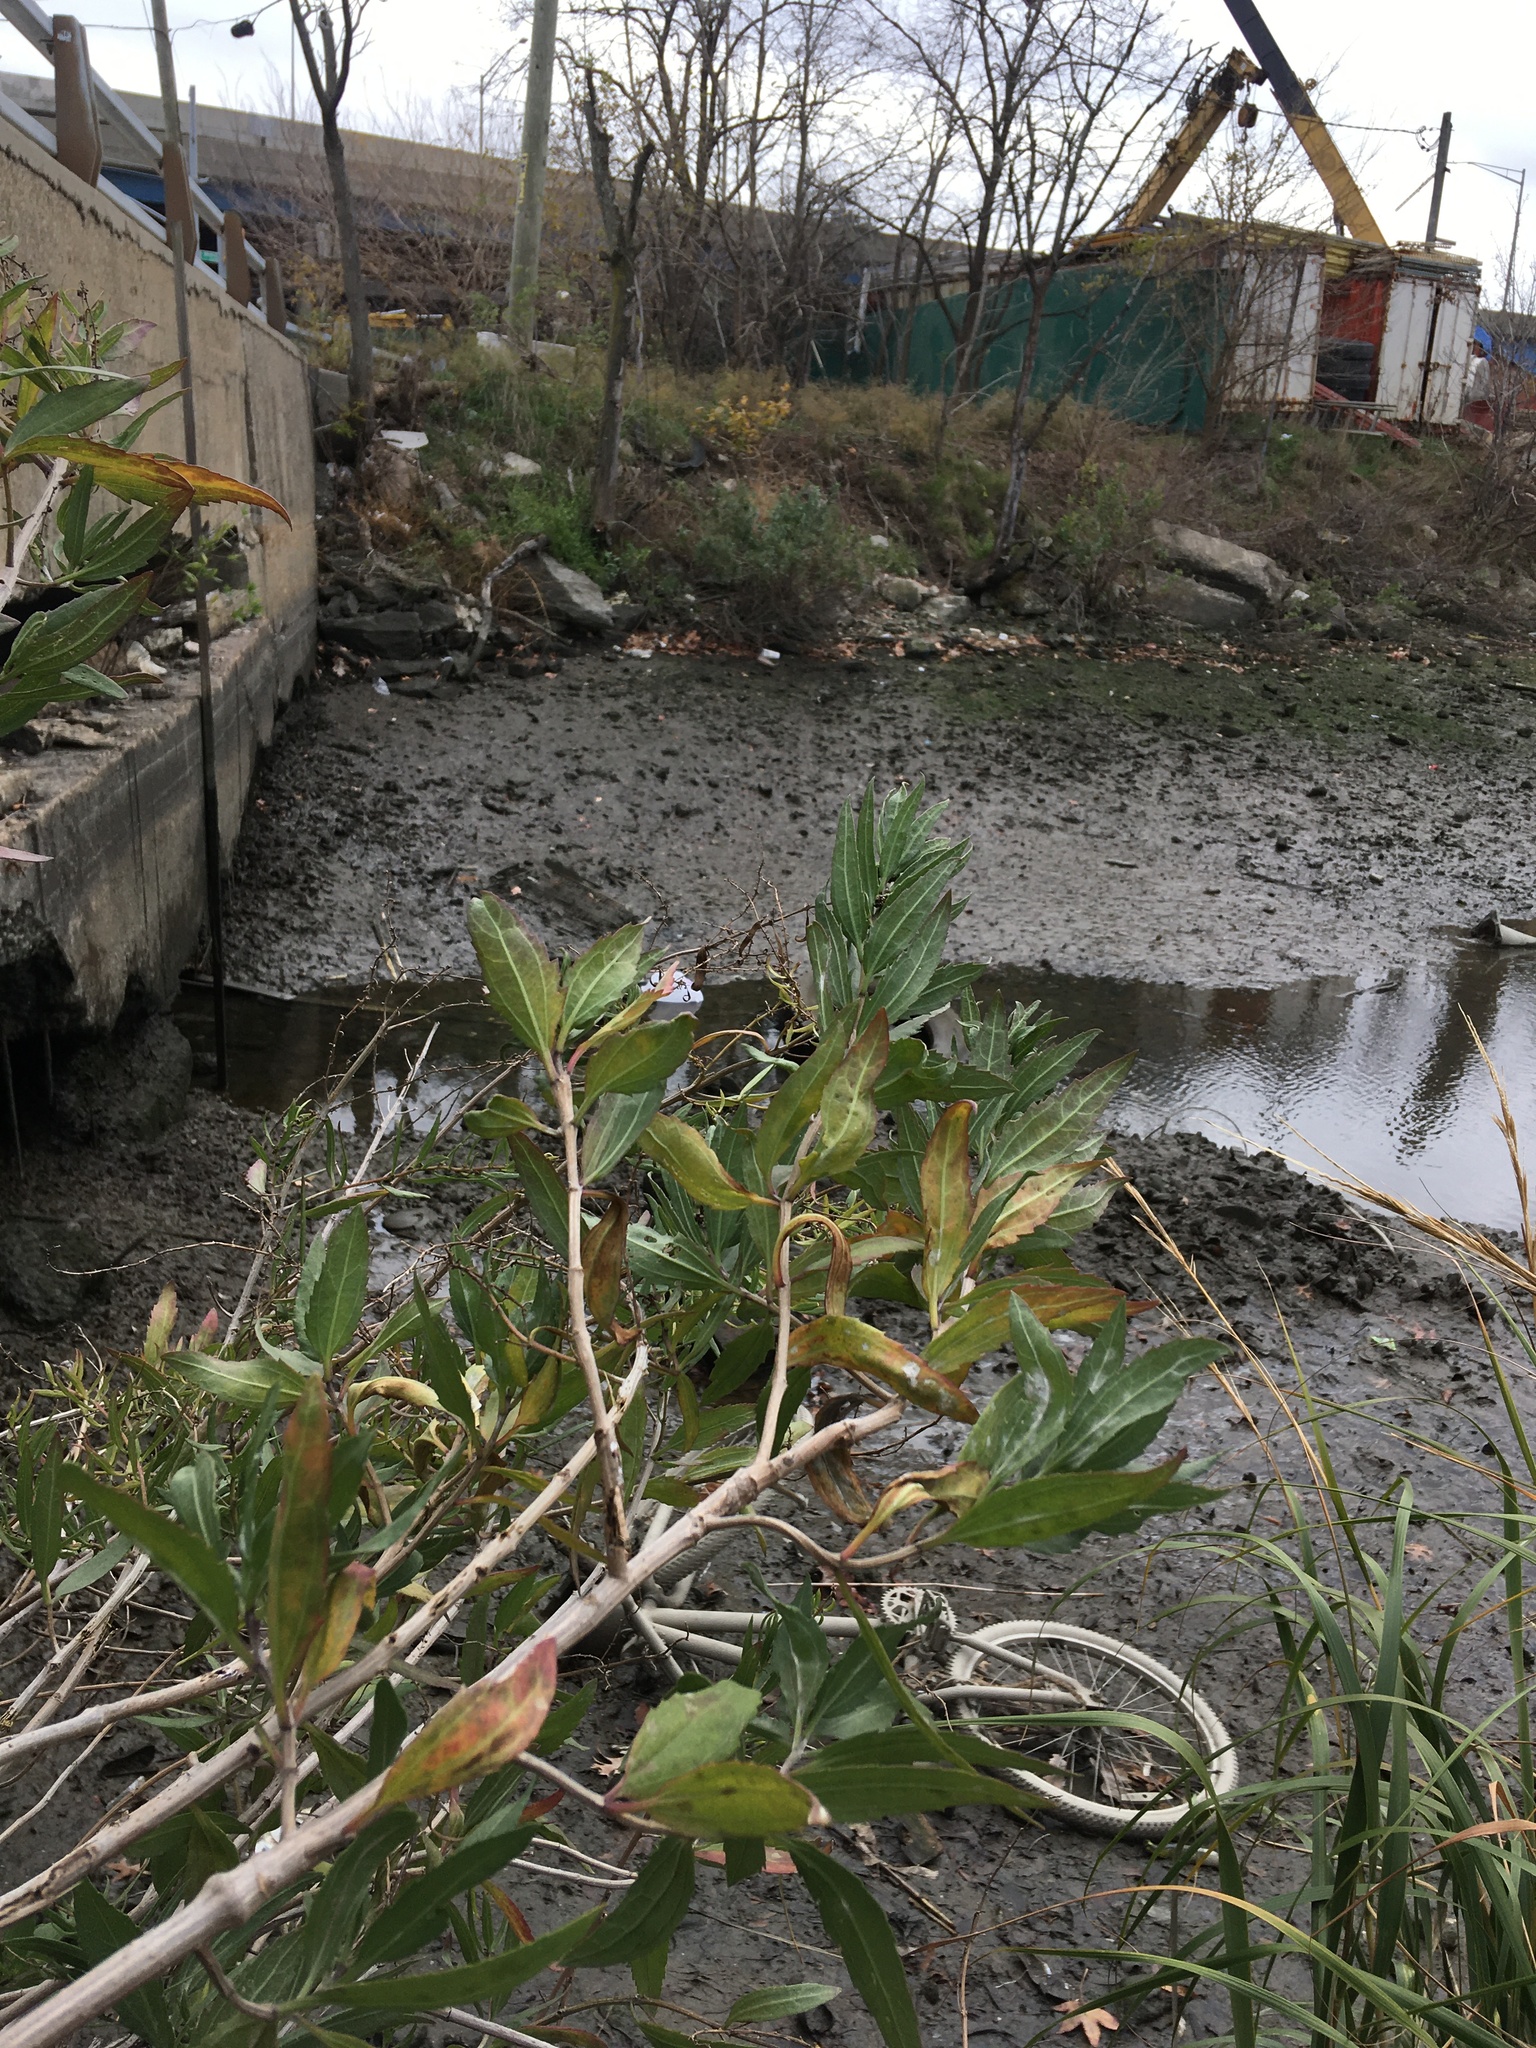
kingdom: Plantae
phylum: Tracheophyta
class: Magnoliopsida
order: Asterales
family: Asteraceae
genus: Iva
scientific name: Iva frutescens
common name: Big-leaved marsh-elder
